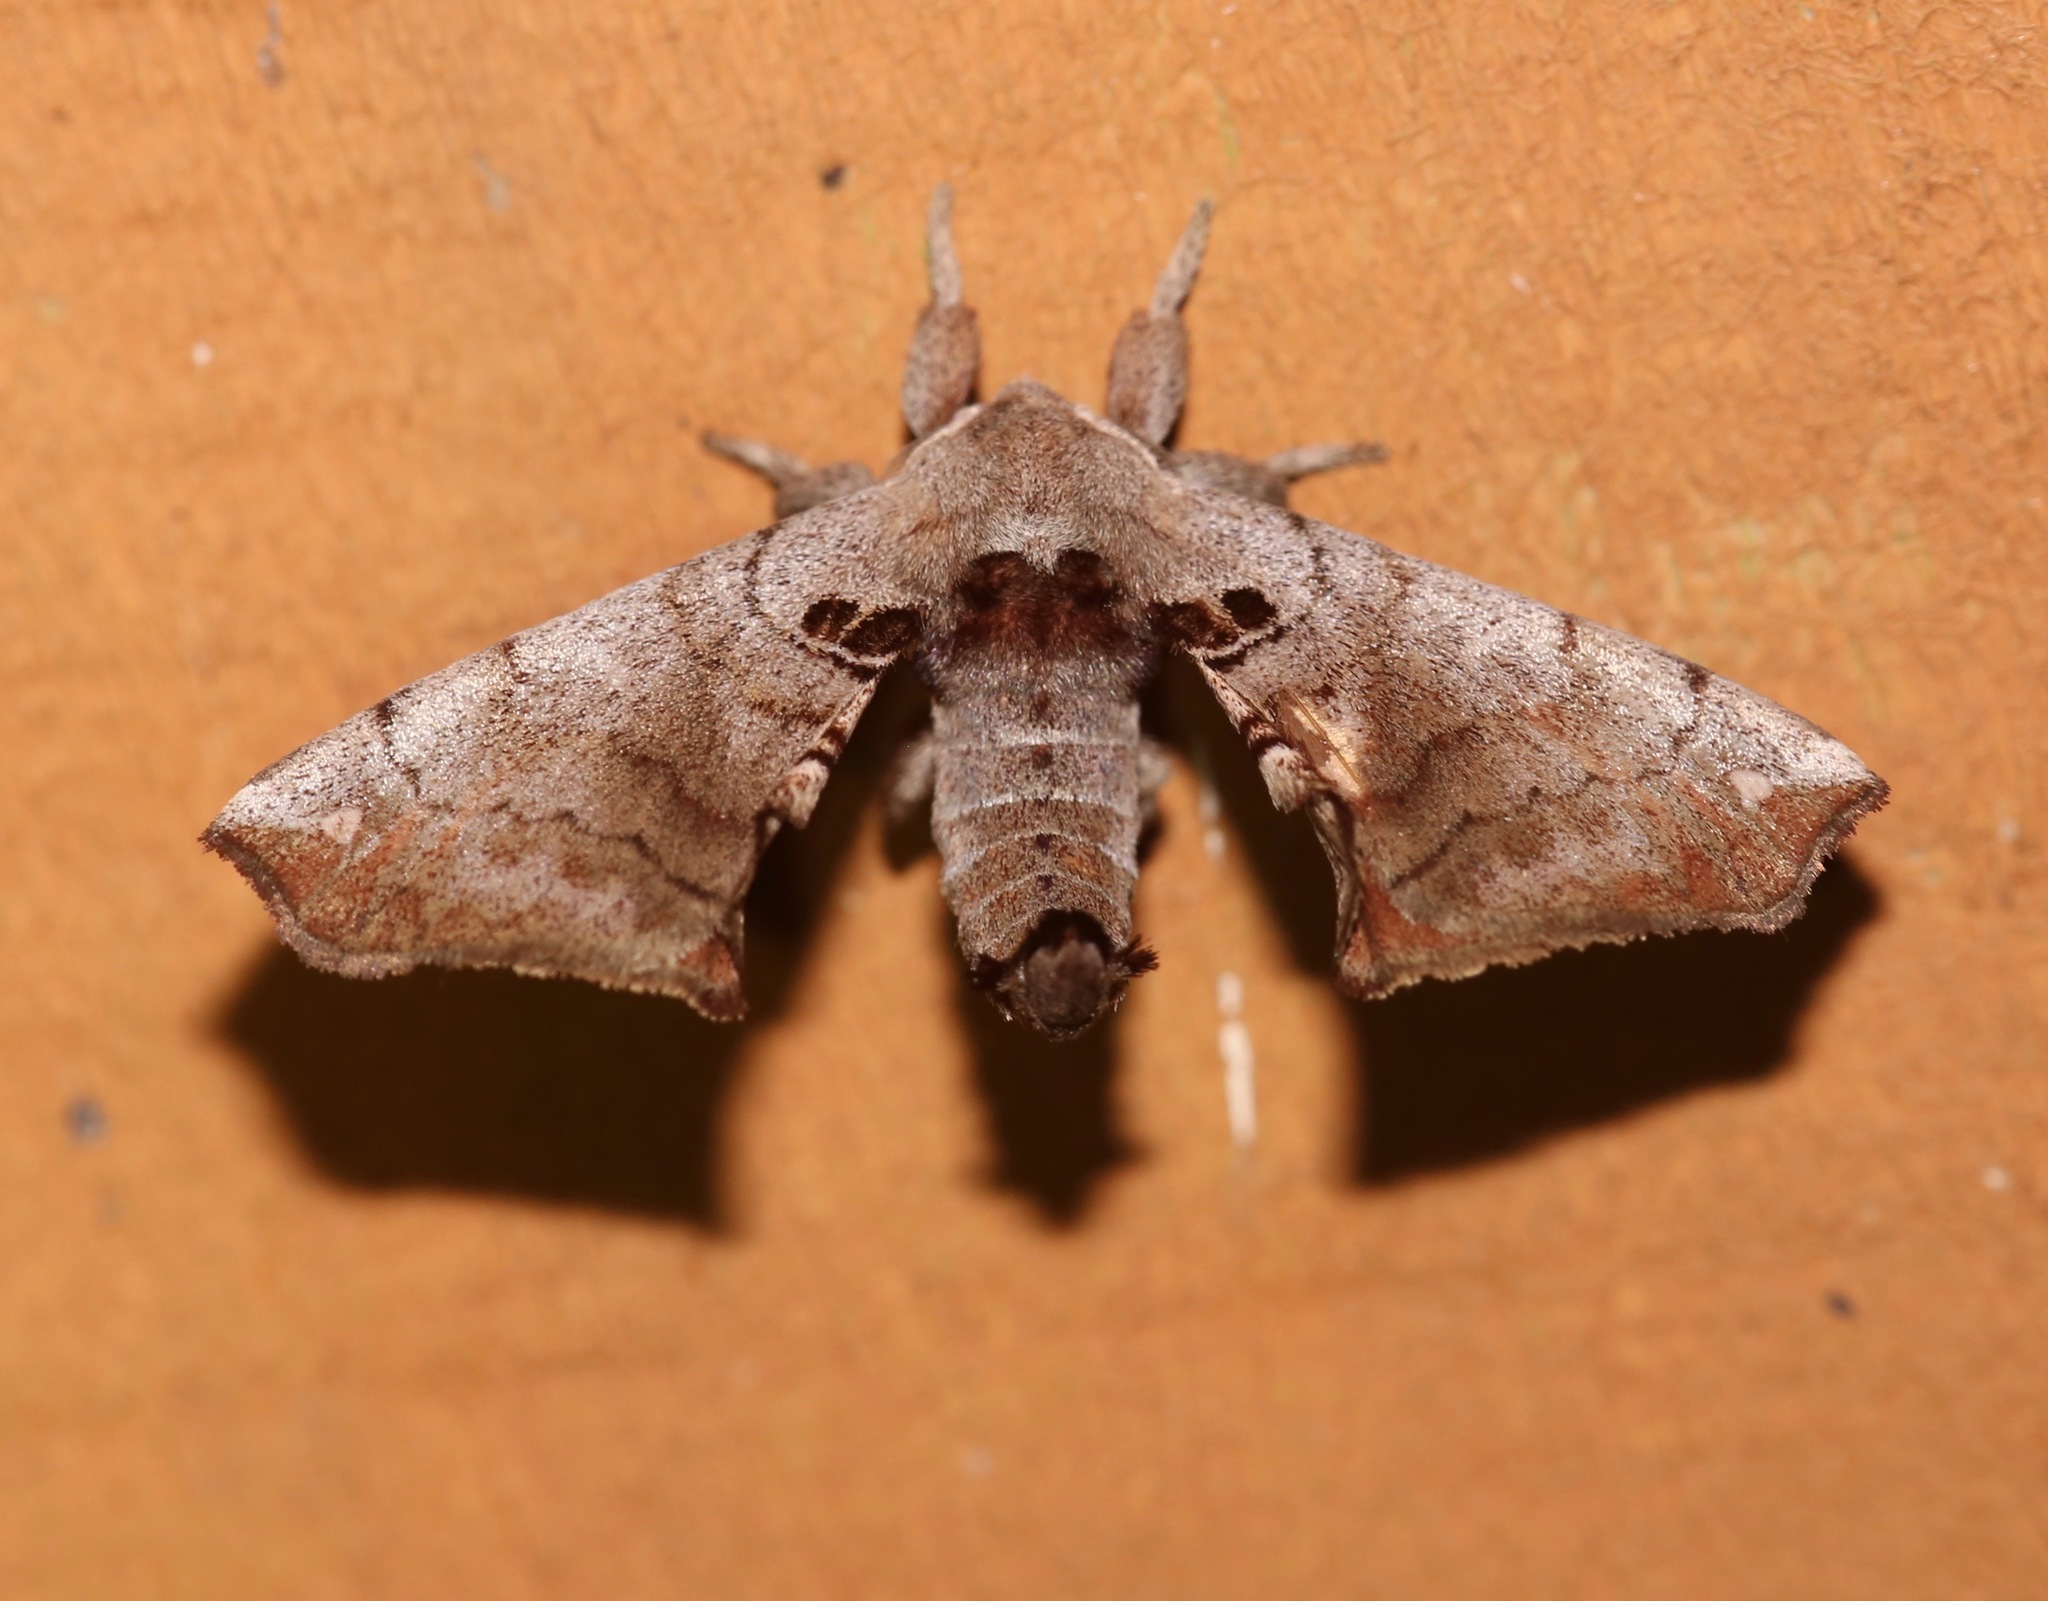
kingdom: Animalia
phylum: Arthropoda
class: Insecta
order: Lepidoptera
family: Apatelodidae
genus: Hygrochroa
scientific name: Hygrochroa Apatelodes torrefacta
